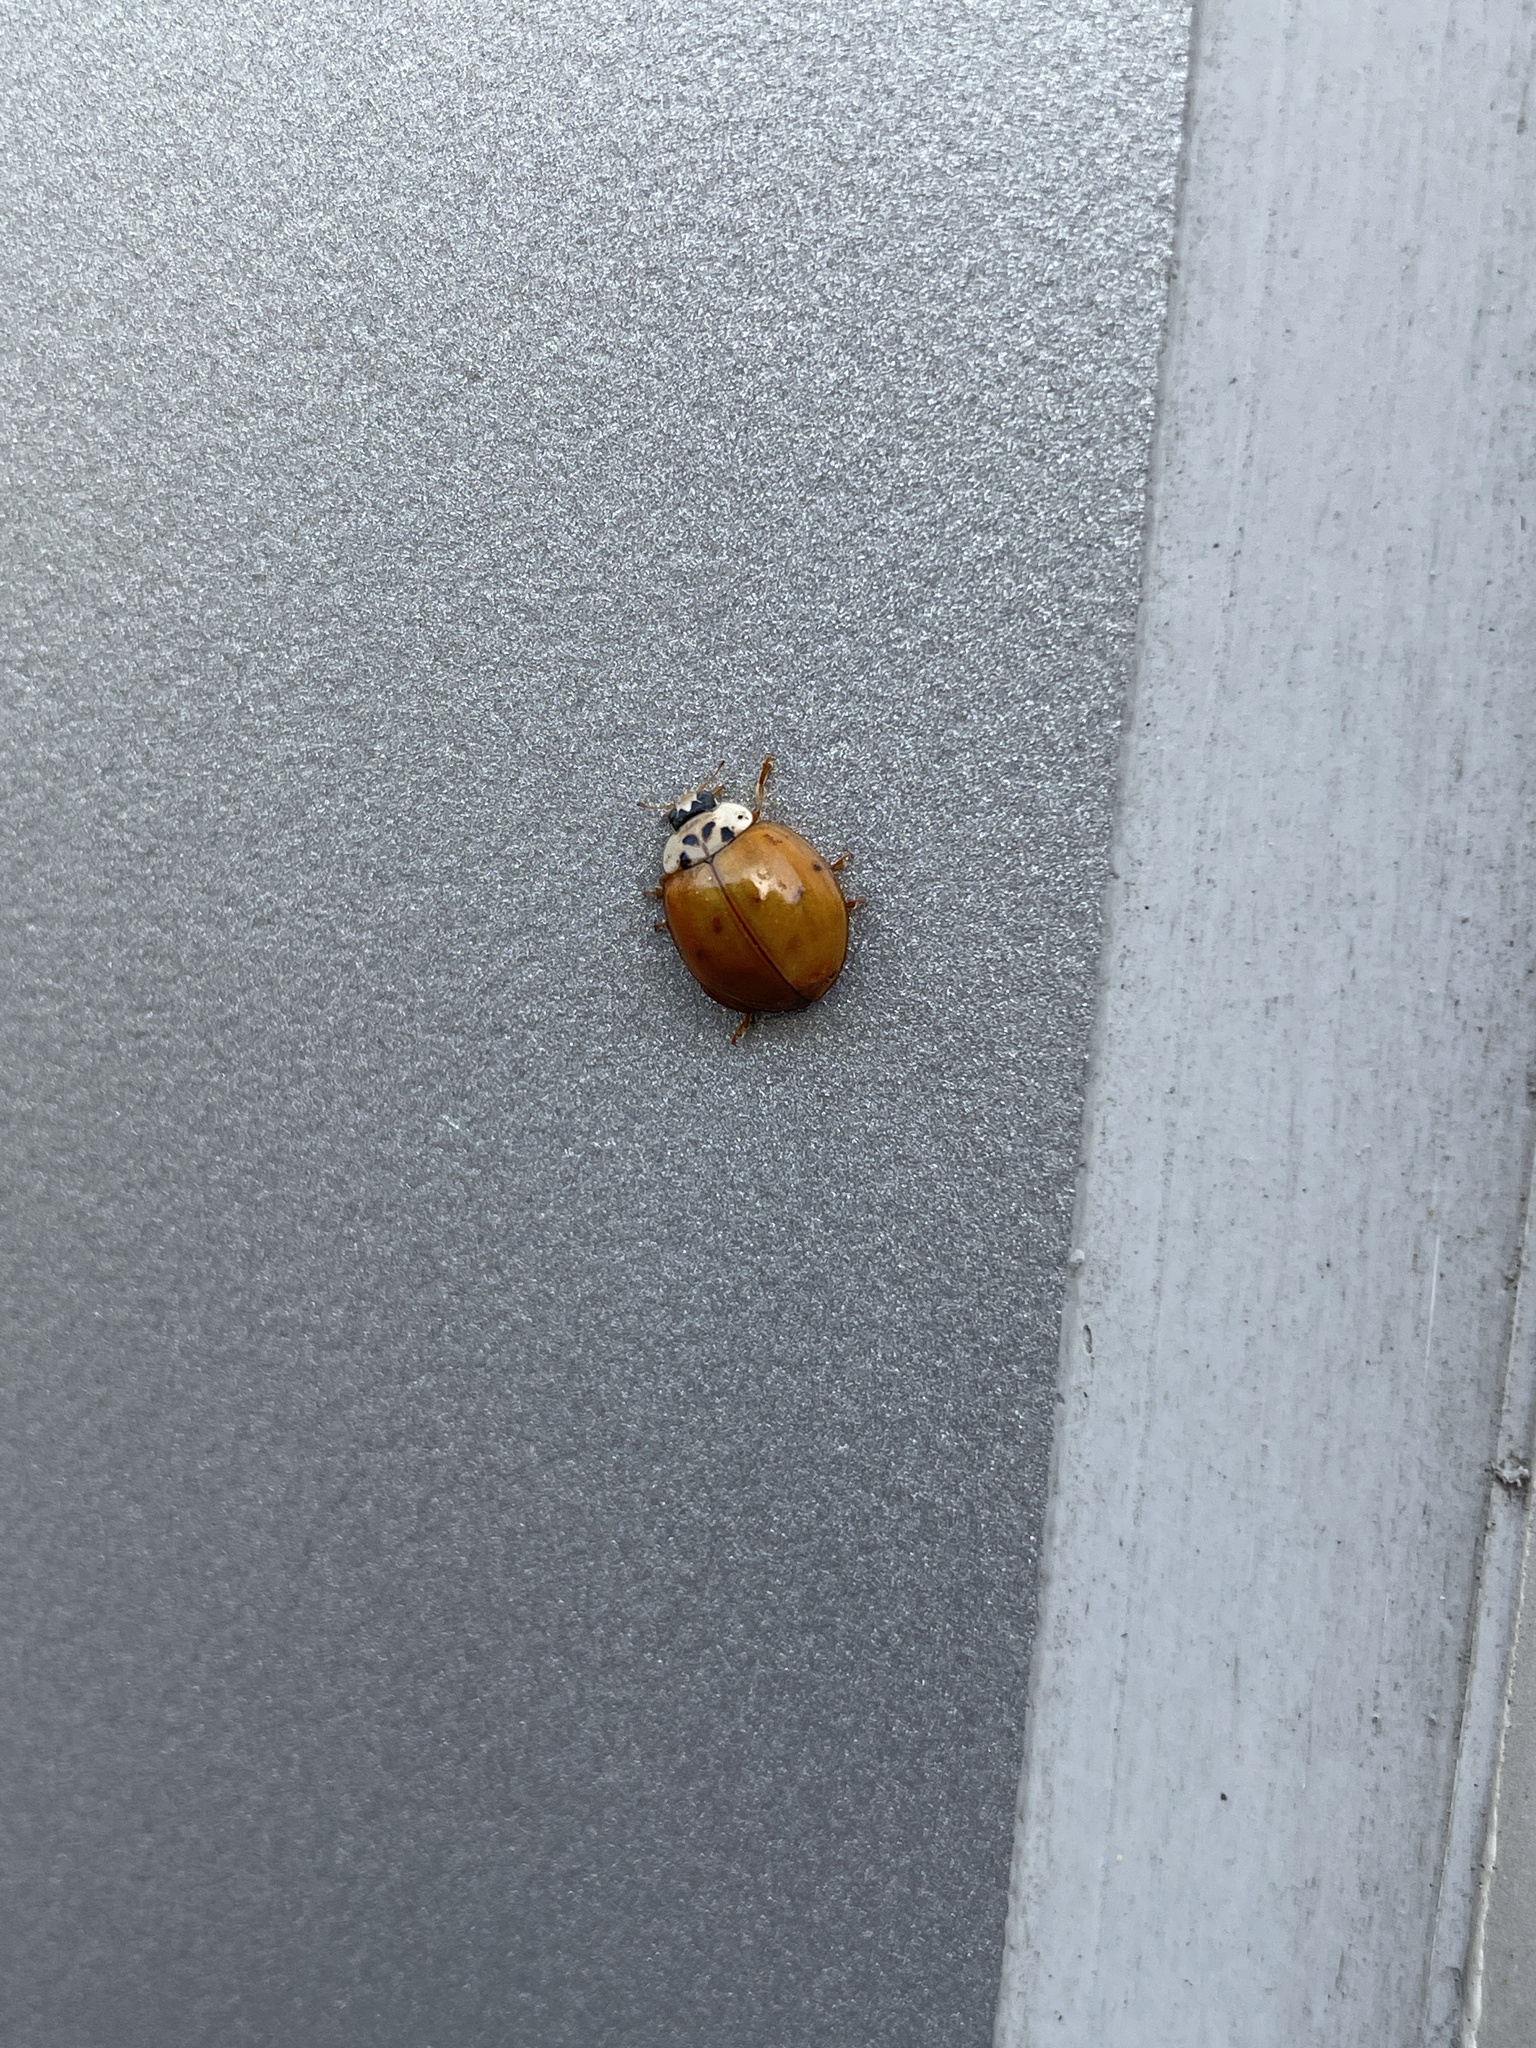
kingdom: Animalia
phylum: Arthropoda
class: Insecta
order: Coleoptera
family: Coccinellidae
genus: Harmonia
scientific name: Harmonia axyridis
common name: Harlequin ladybird
